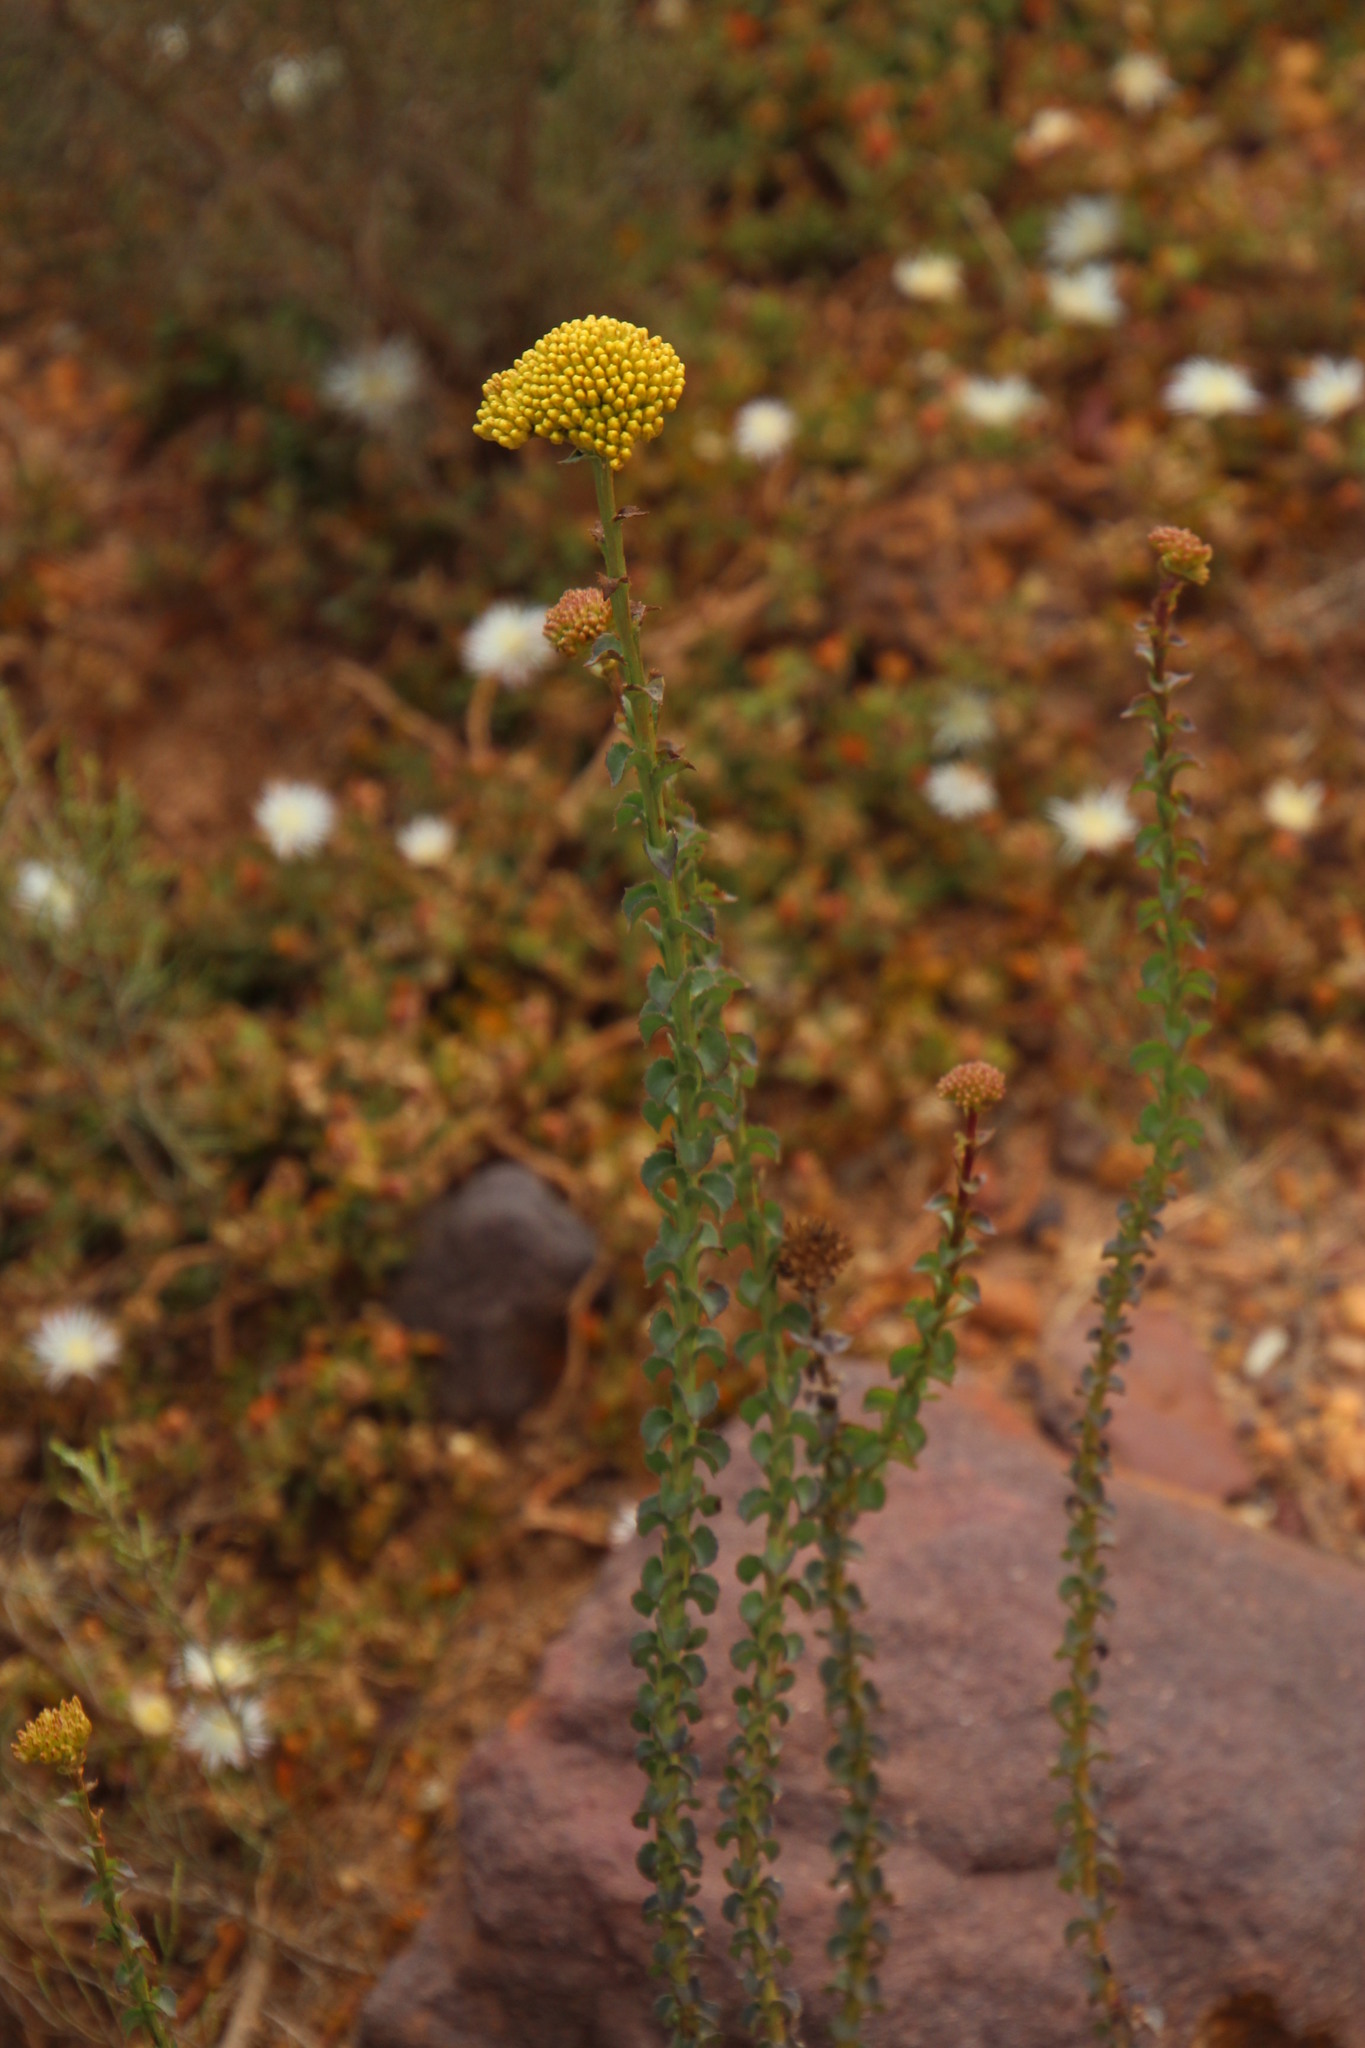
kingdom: Plantae
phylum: Tracheophyta
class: Magnoliopsida
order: Asterales
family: Asteraceae
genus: Athanasia
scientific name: Athanasia dentata
